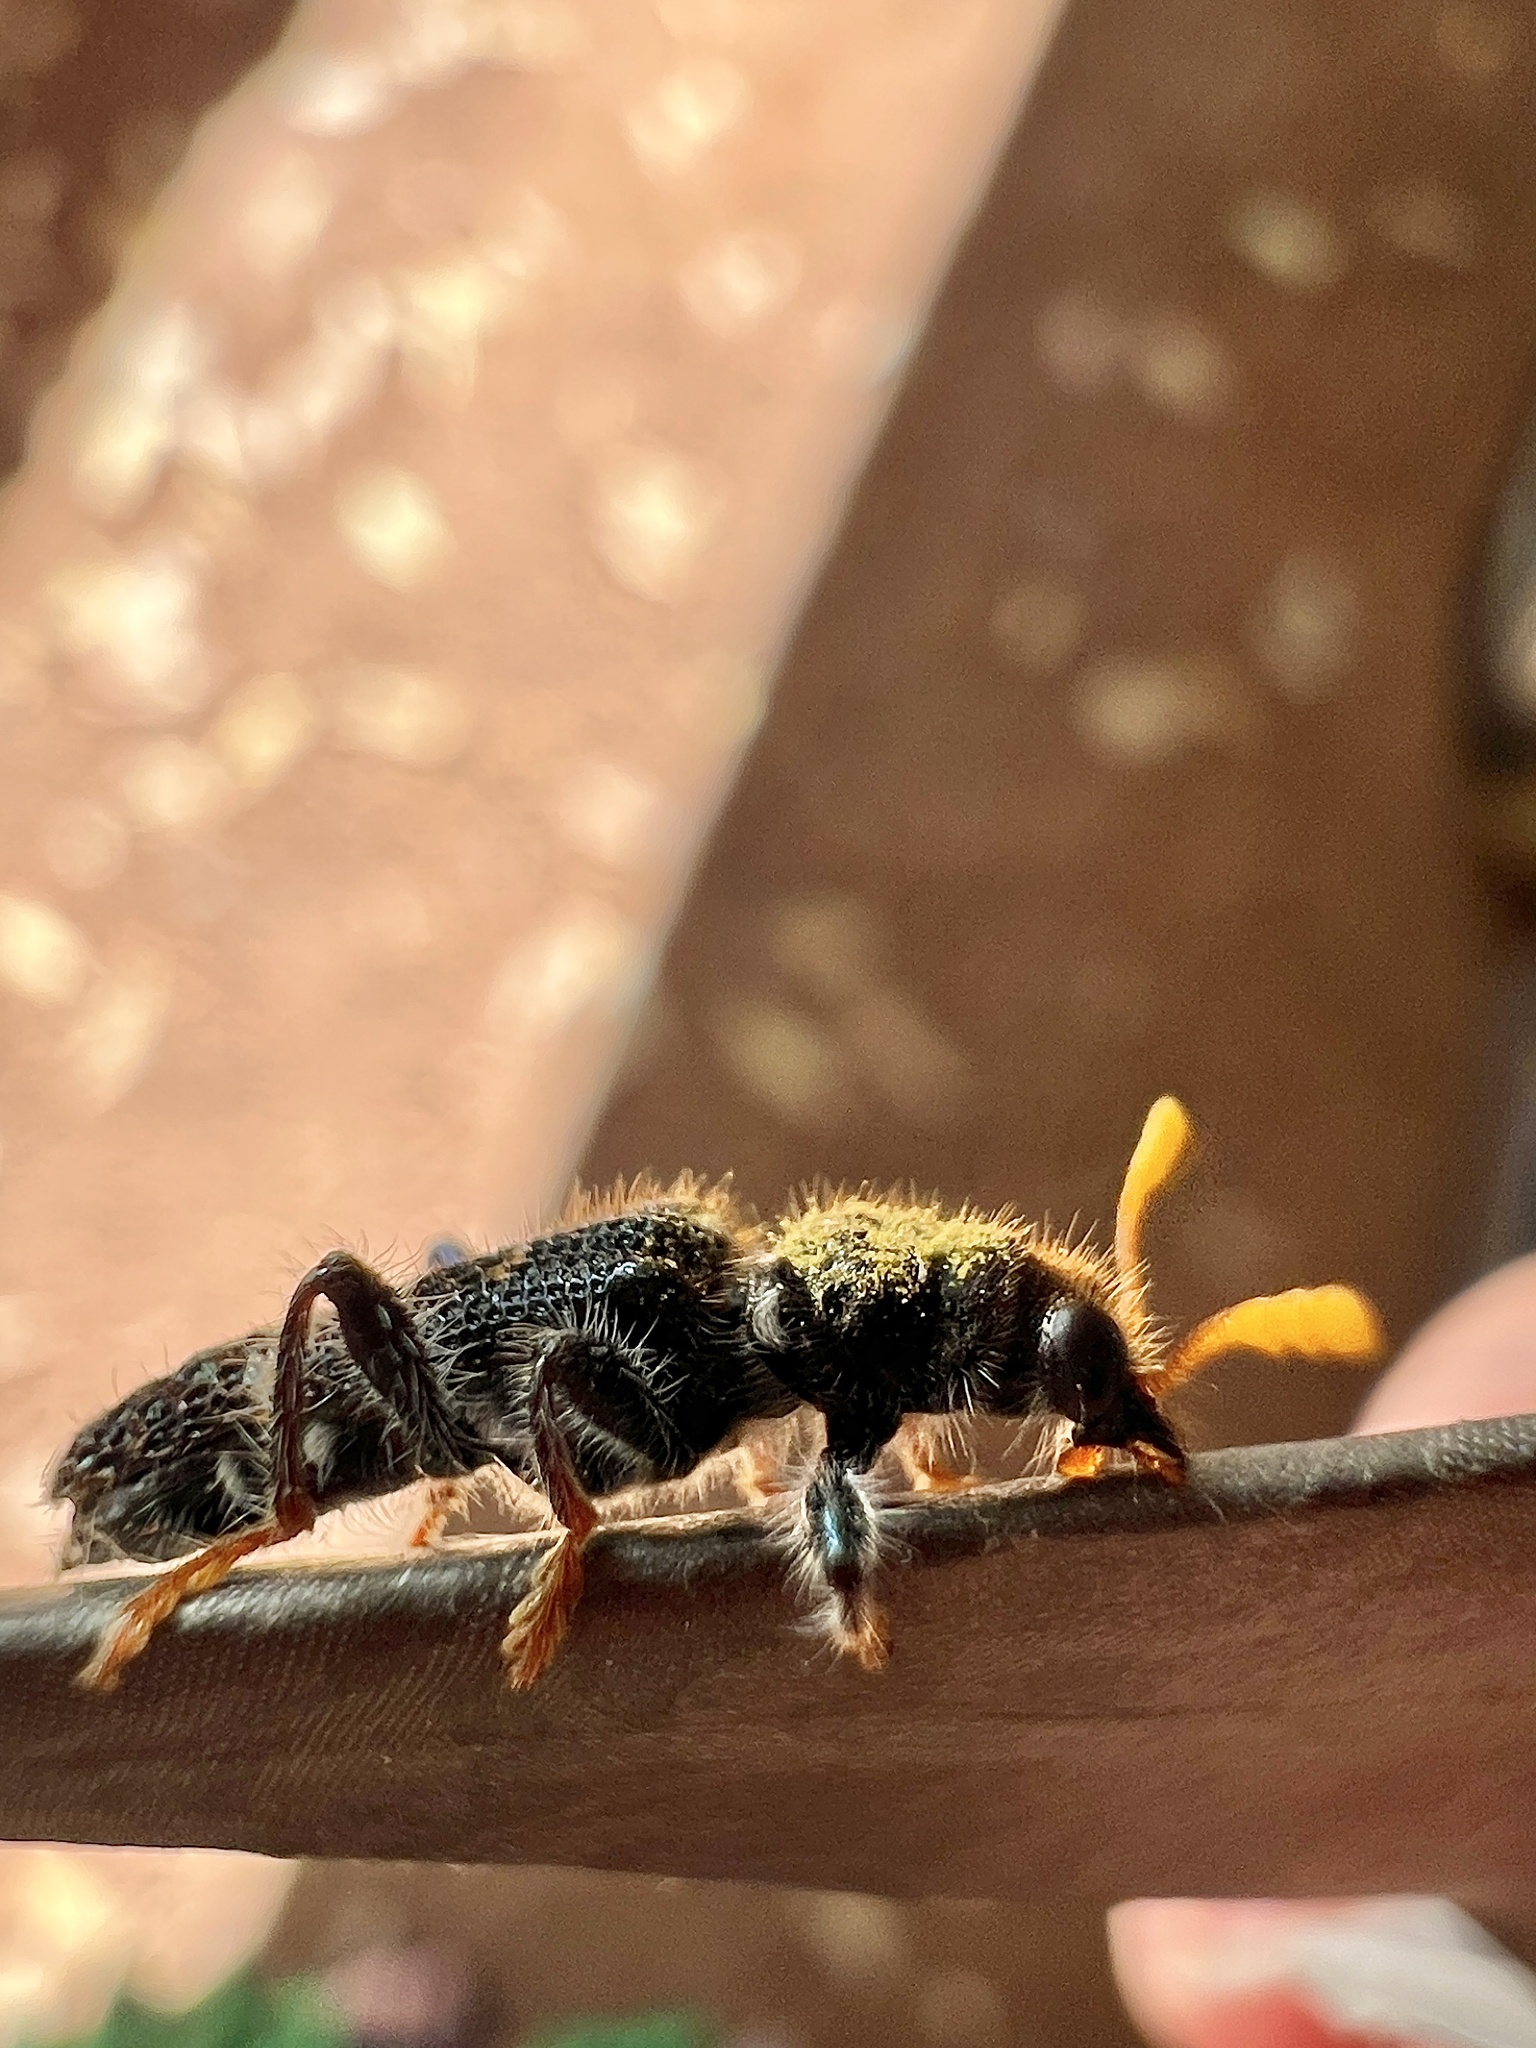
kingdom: Animalia
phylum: Arthropoda
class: Insecta
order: Coleoptera
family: Cleridae
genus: Scrobiger
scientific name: Scrobiger
